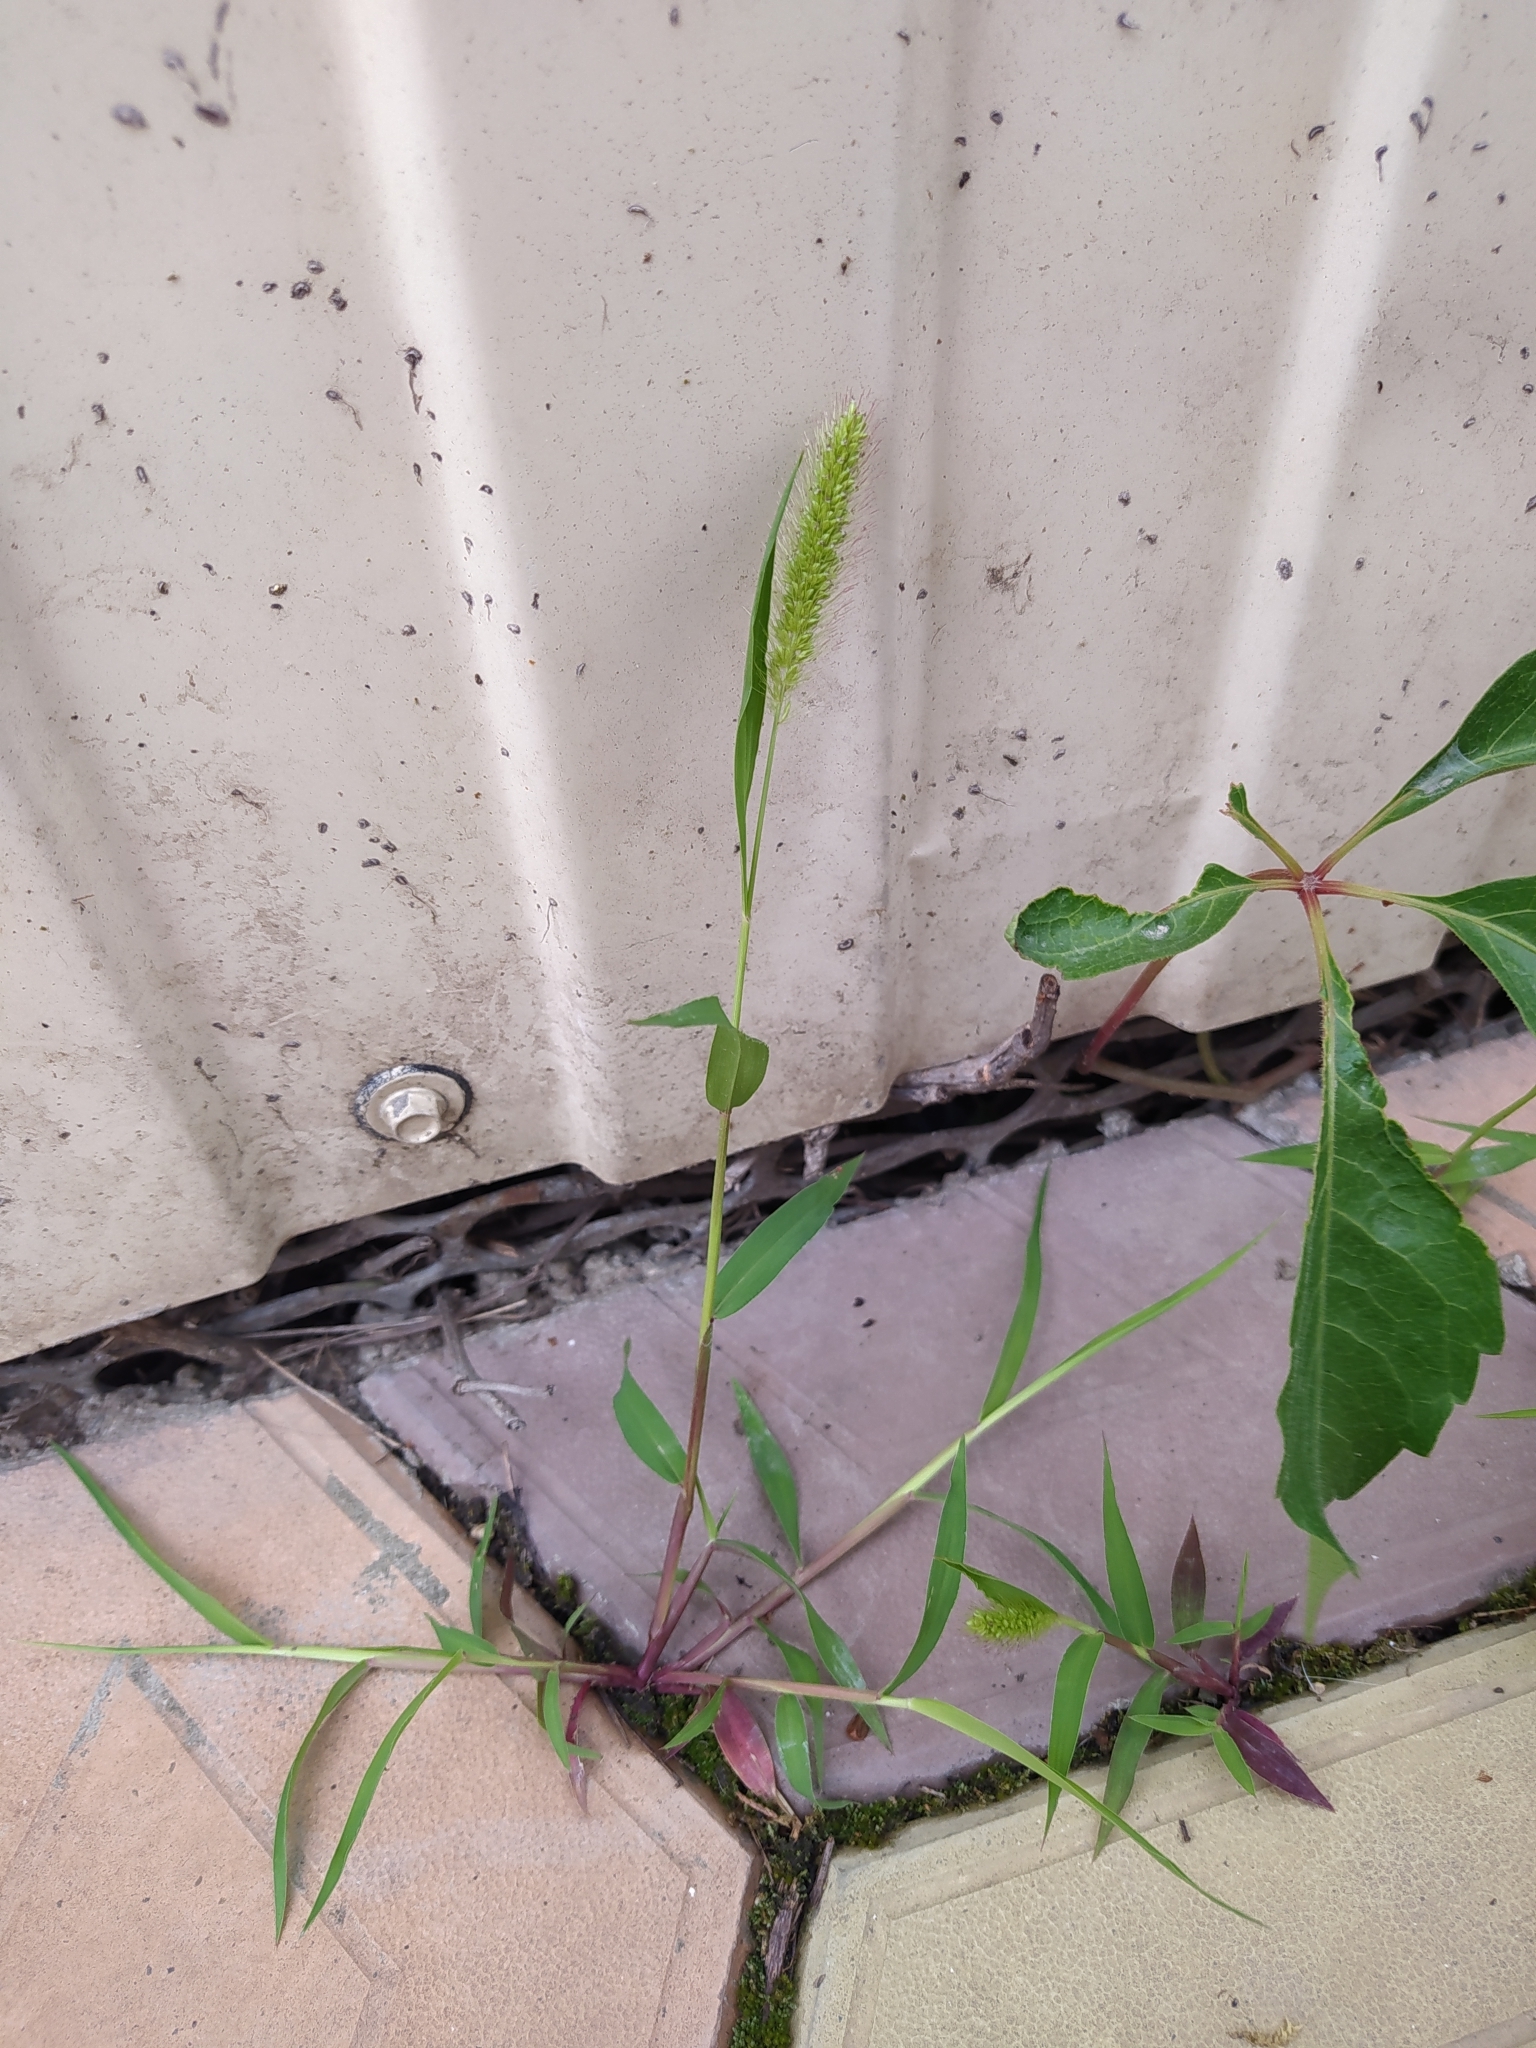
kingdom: Plantae
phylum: Tracheophyta
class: Liliopsida
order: Poales
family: Poaceae
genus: Setaria
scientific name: Setaria viridis
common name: Green bristlegrass
